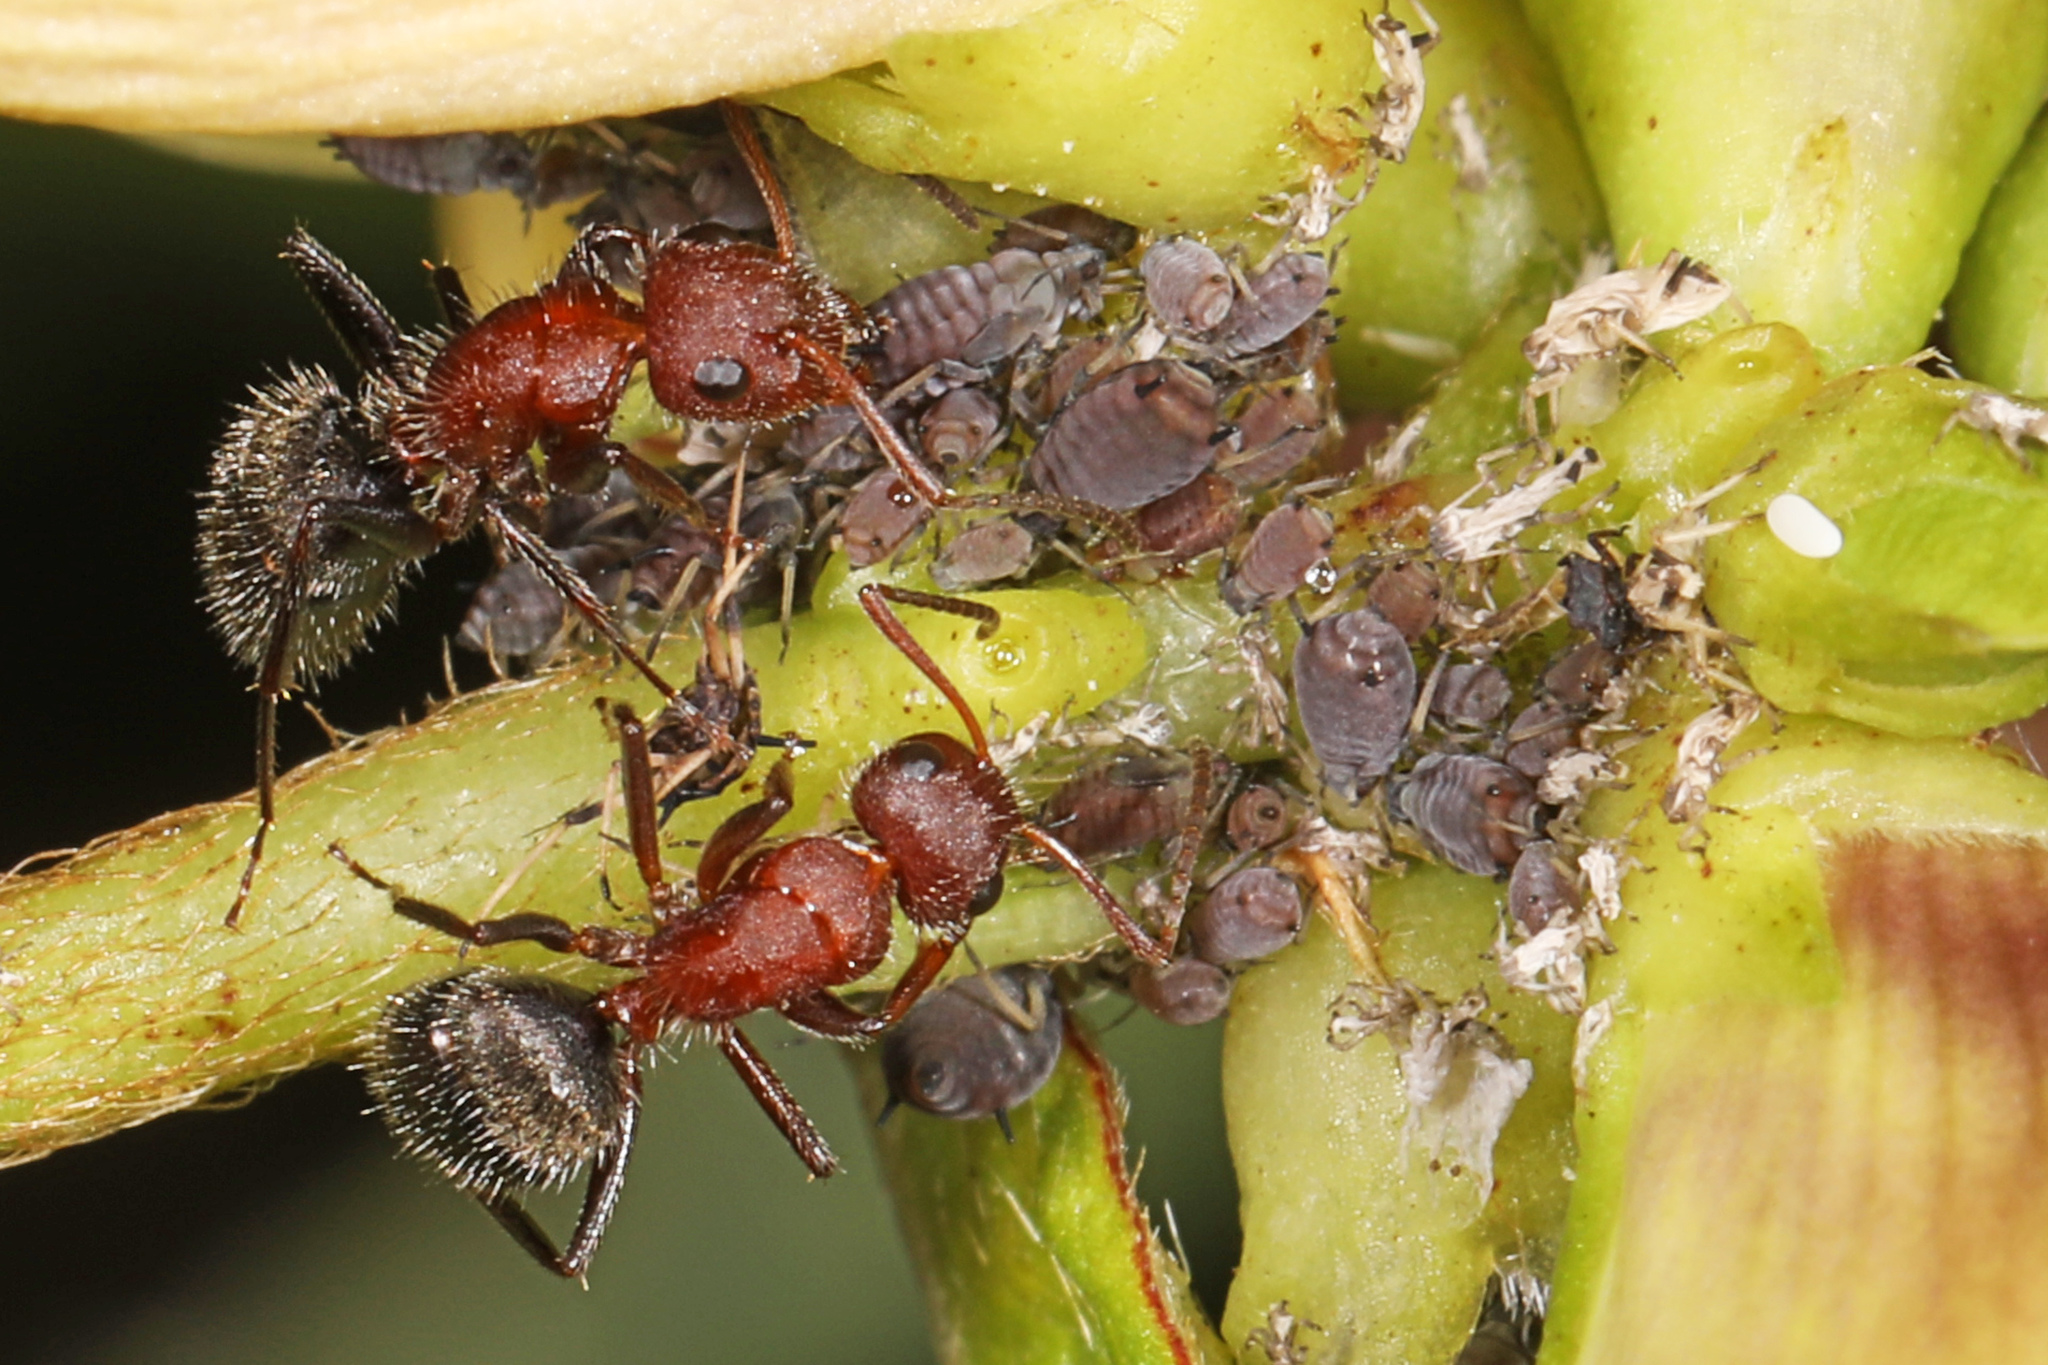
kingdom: Animalia
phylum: Arthropoda
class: Insecta
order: Hymenoptera
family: Formicidae
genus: Camponotus
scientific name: Camponotus planatus
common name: Compact carpenter ant
